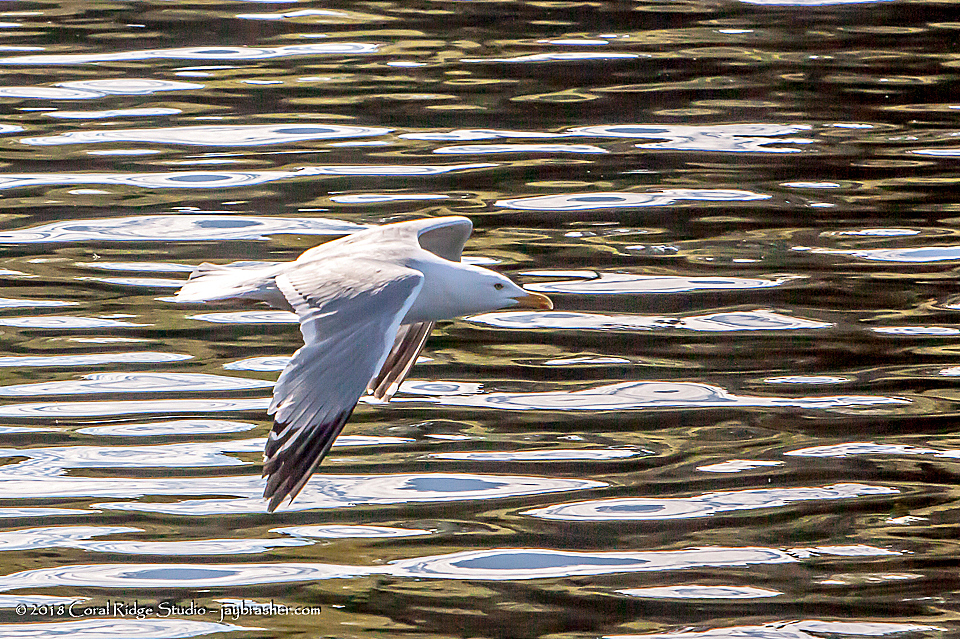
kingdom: Animalia
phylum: Chordata
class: Aves
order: Charadriiformes
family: Laridae
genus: Larus
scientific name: Larus argentatus
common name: Herring gull
